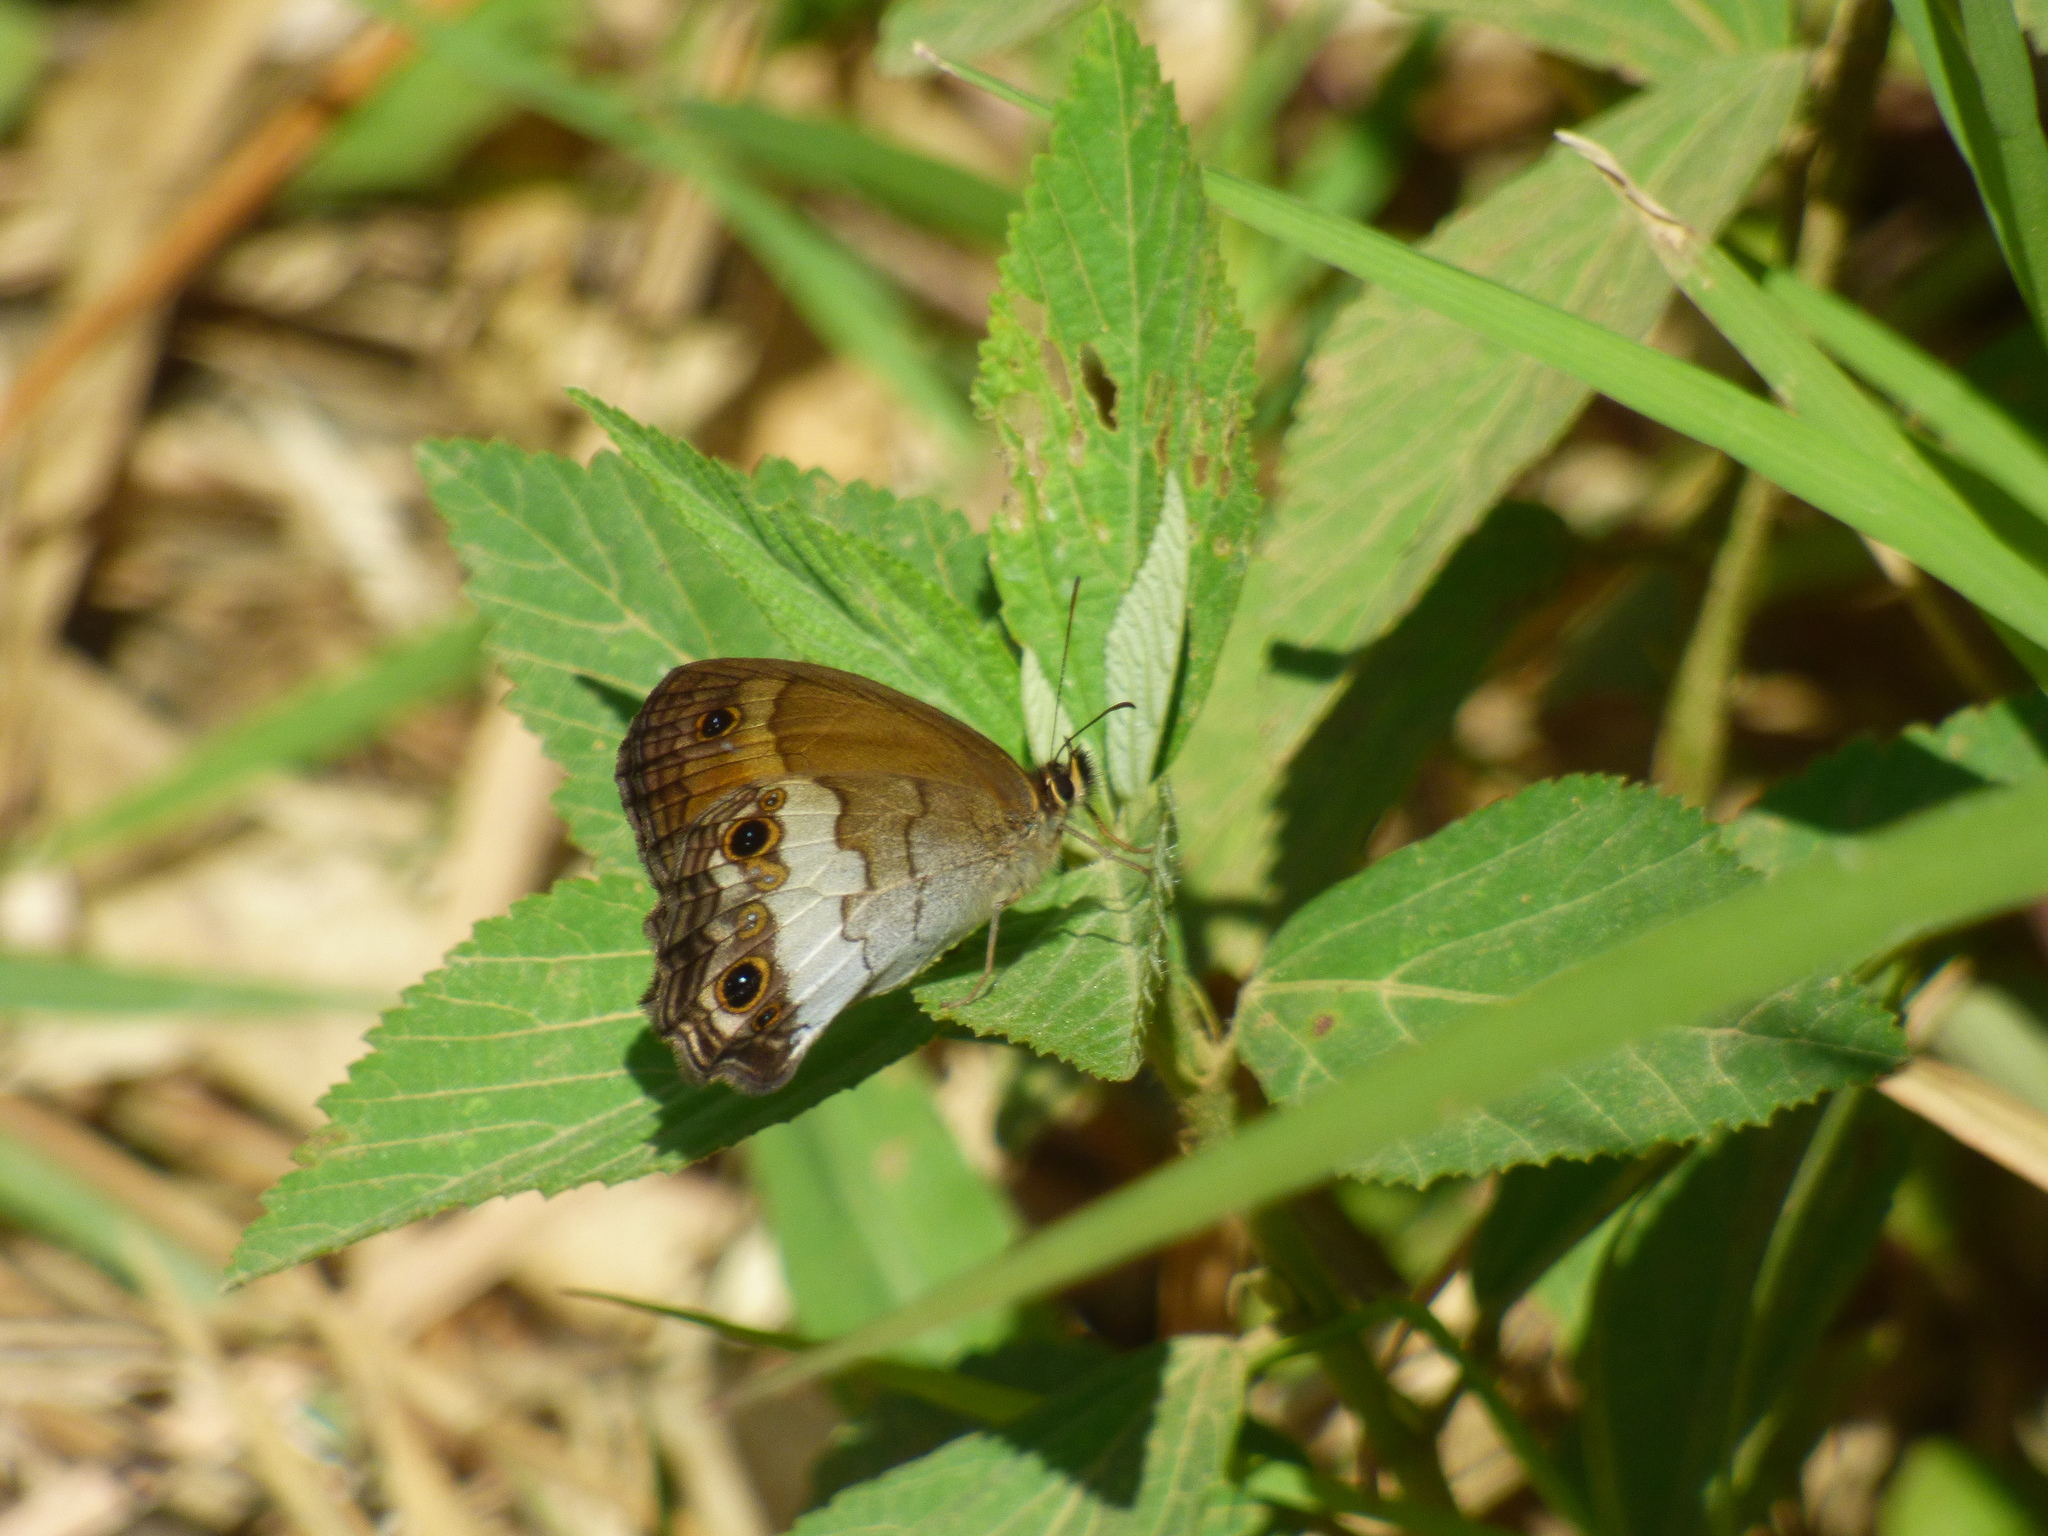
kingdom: Animalia
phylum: Arthropoda
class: Insecta
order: Lepidoptera
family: Nymphalidae
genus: Graphita
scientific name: Graphita griphe
